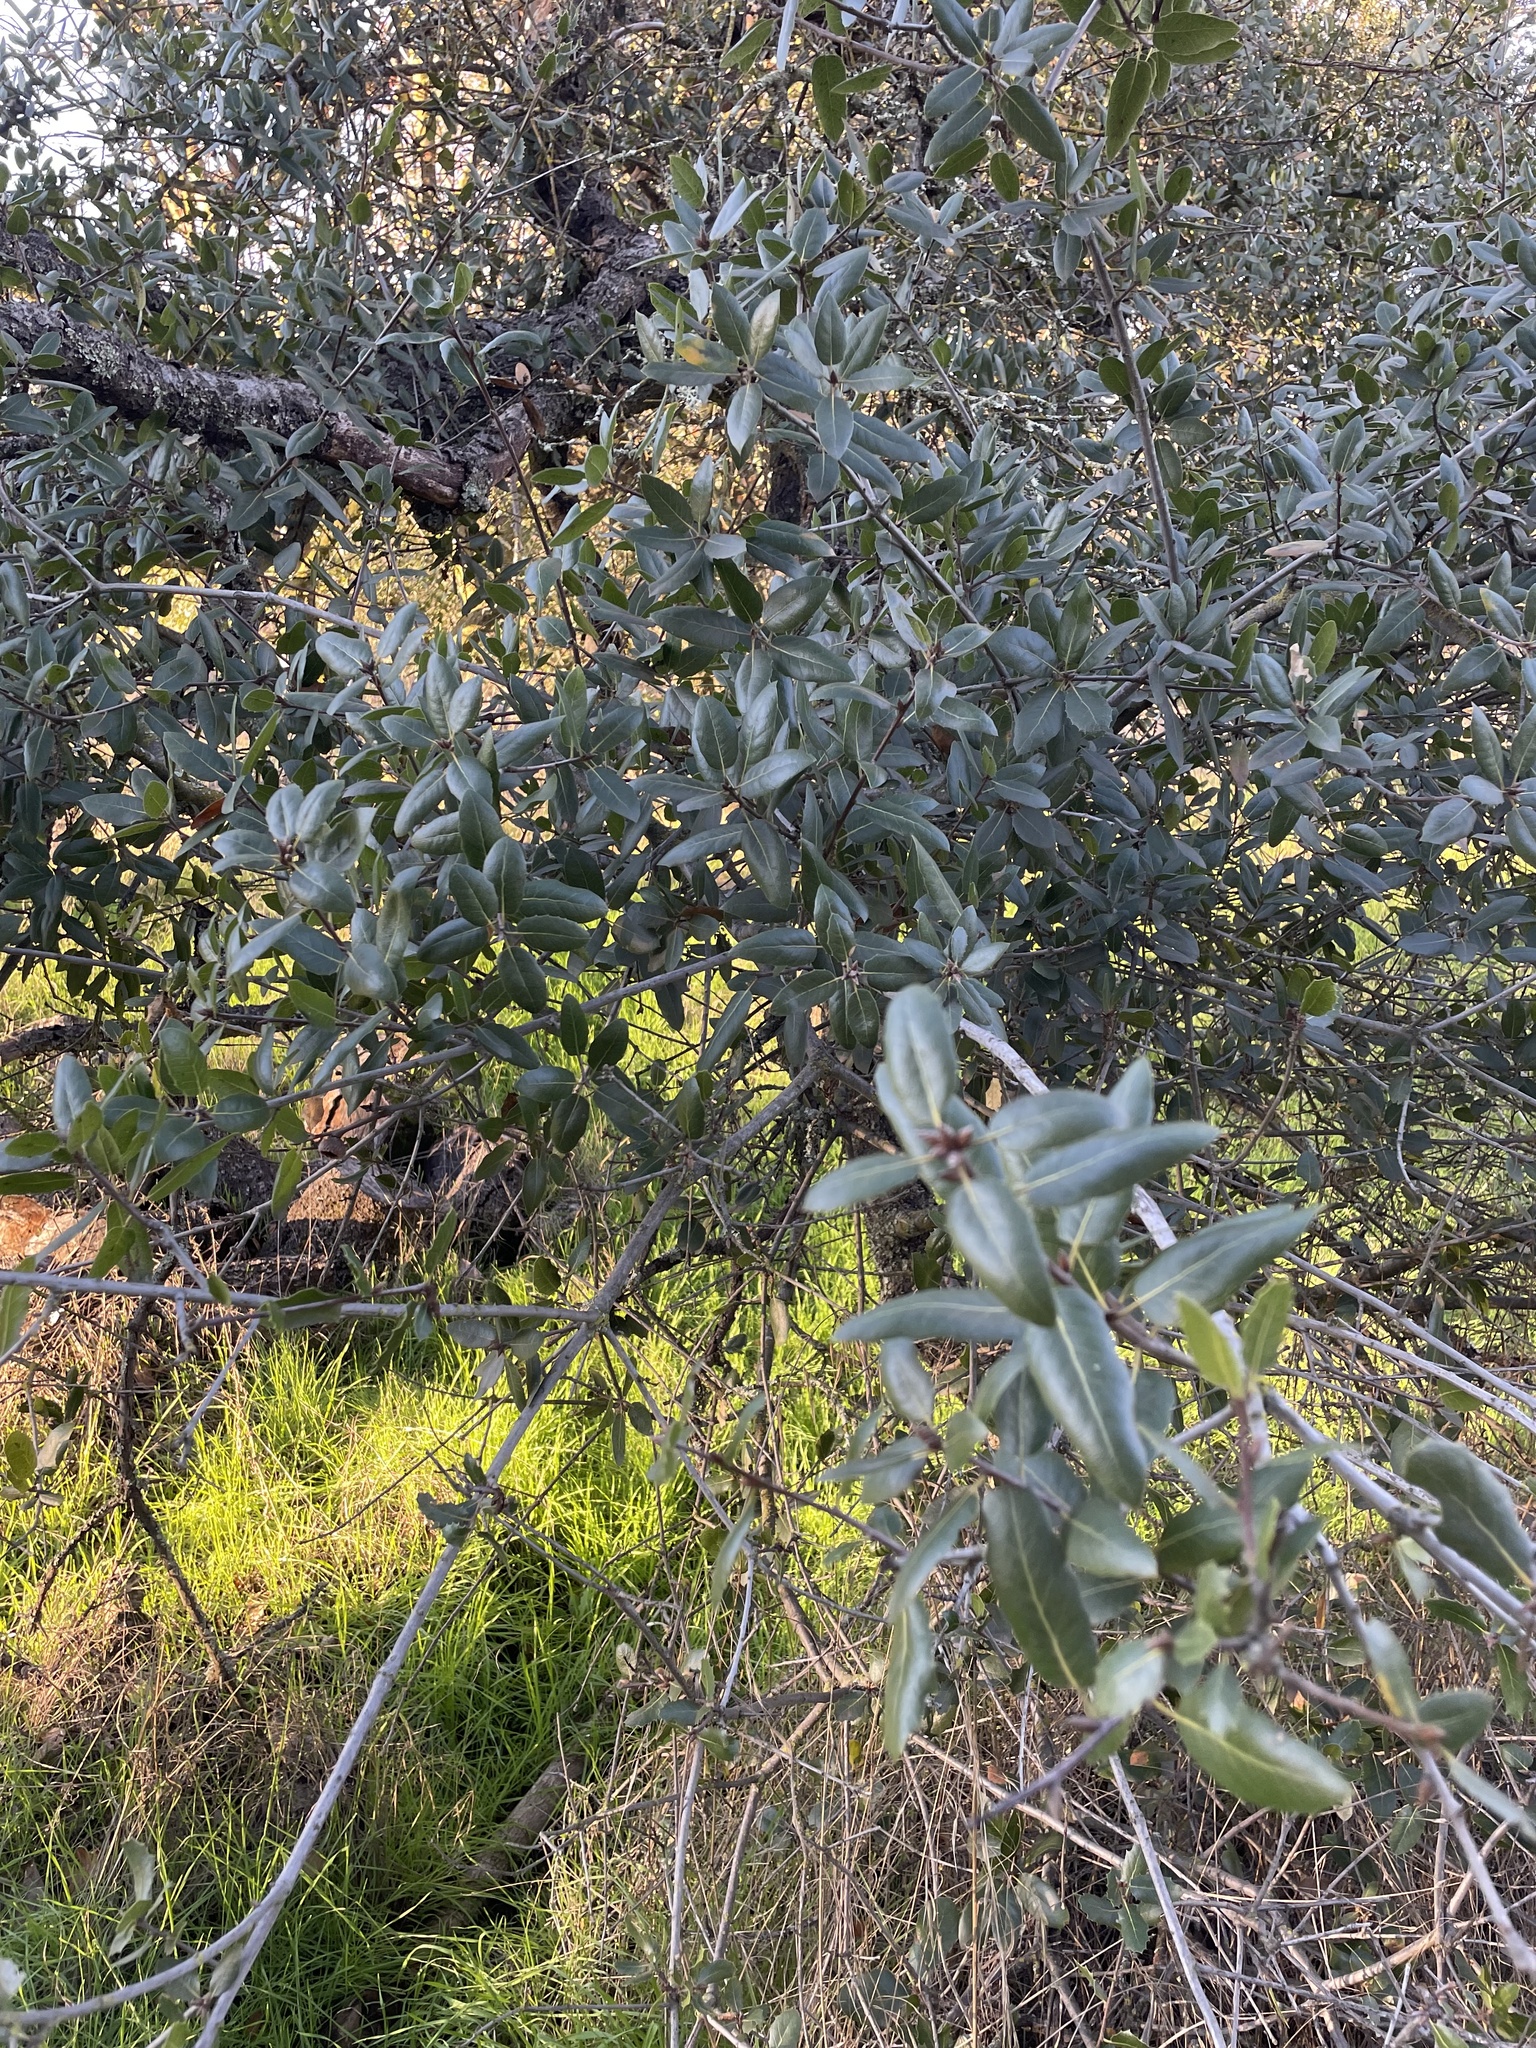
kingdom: Plantae
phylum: Tracheophyta
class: Magnoliopsida
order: Fagales
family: Fagaceae
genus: Quercus
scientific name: Quercus wislizeni
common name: Interior live oak
